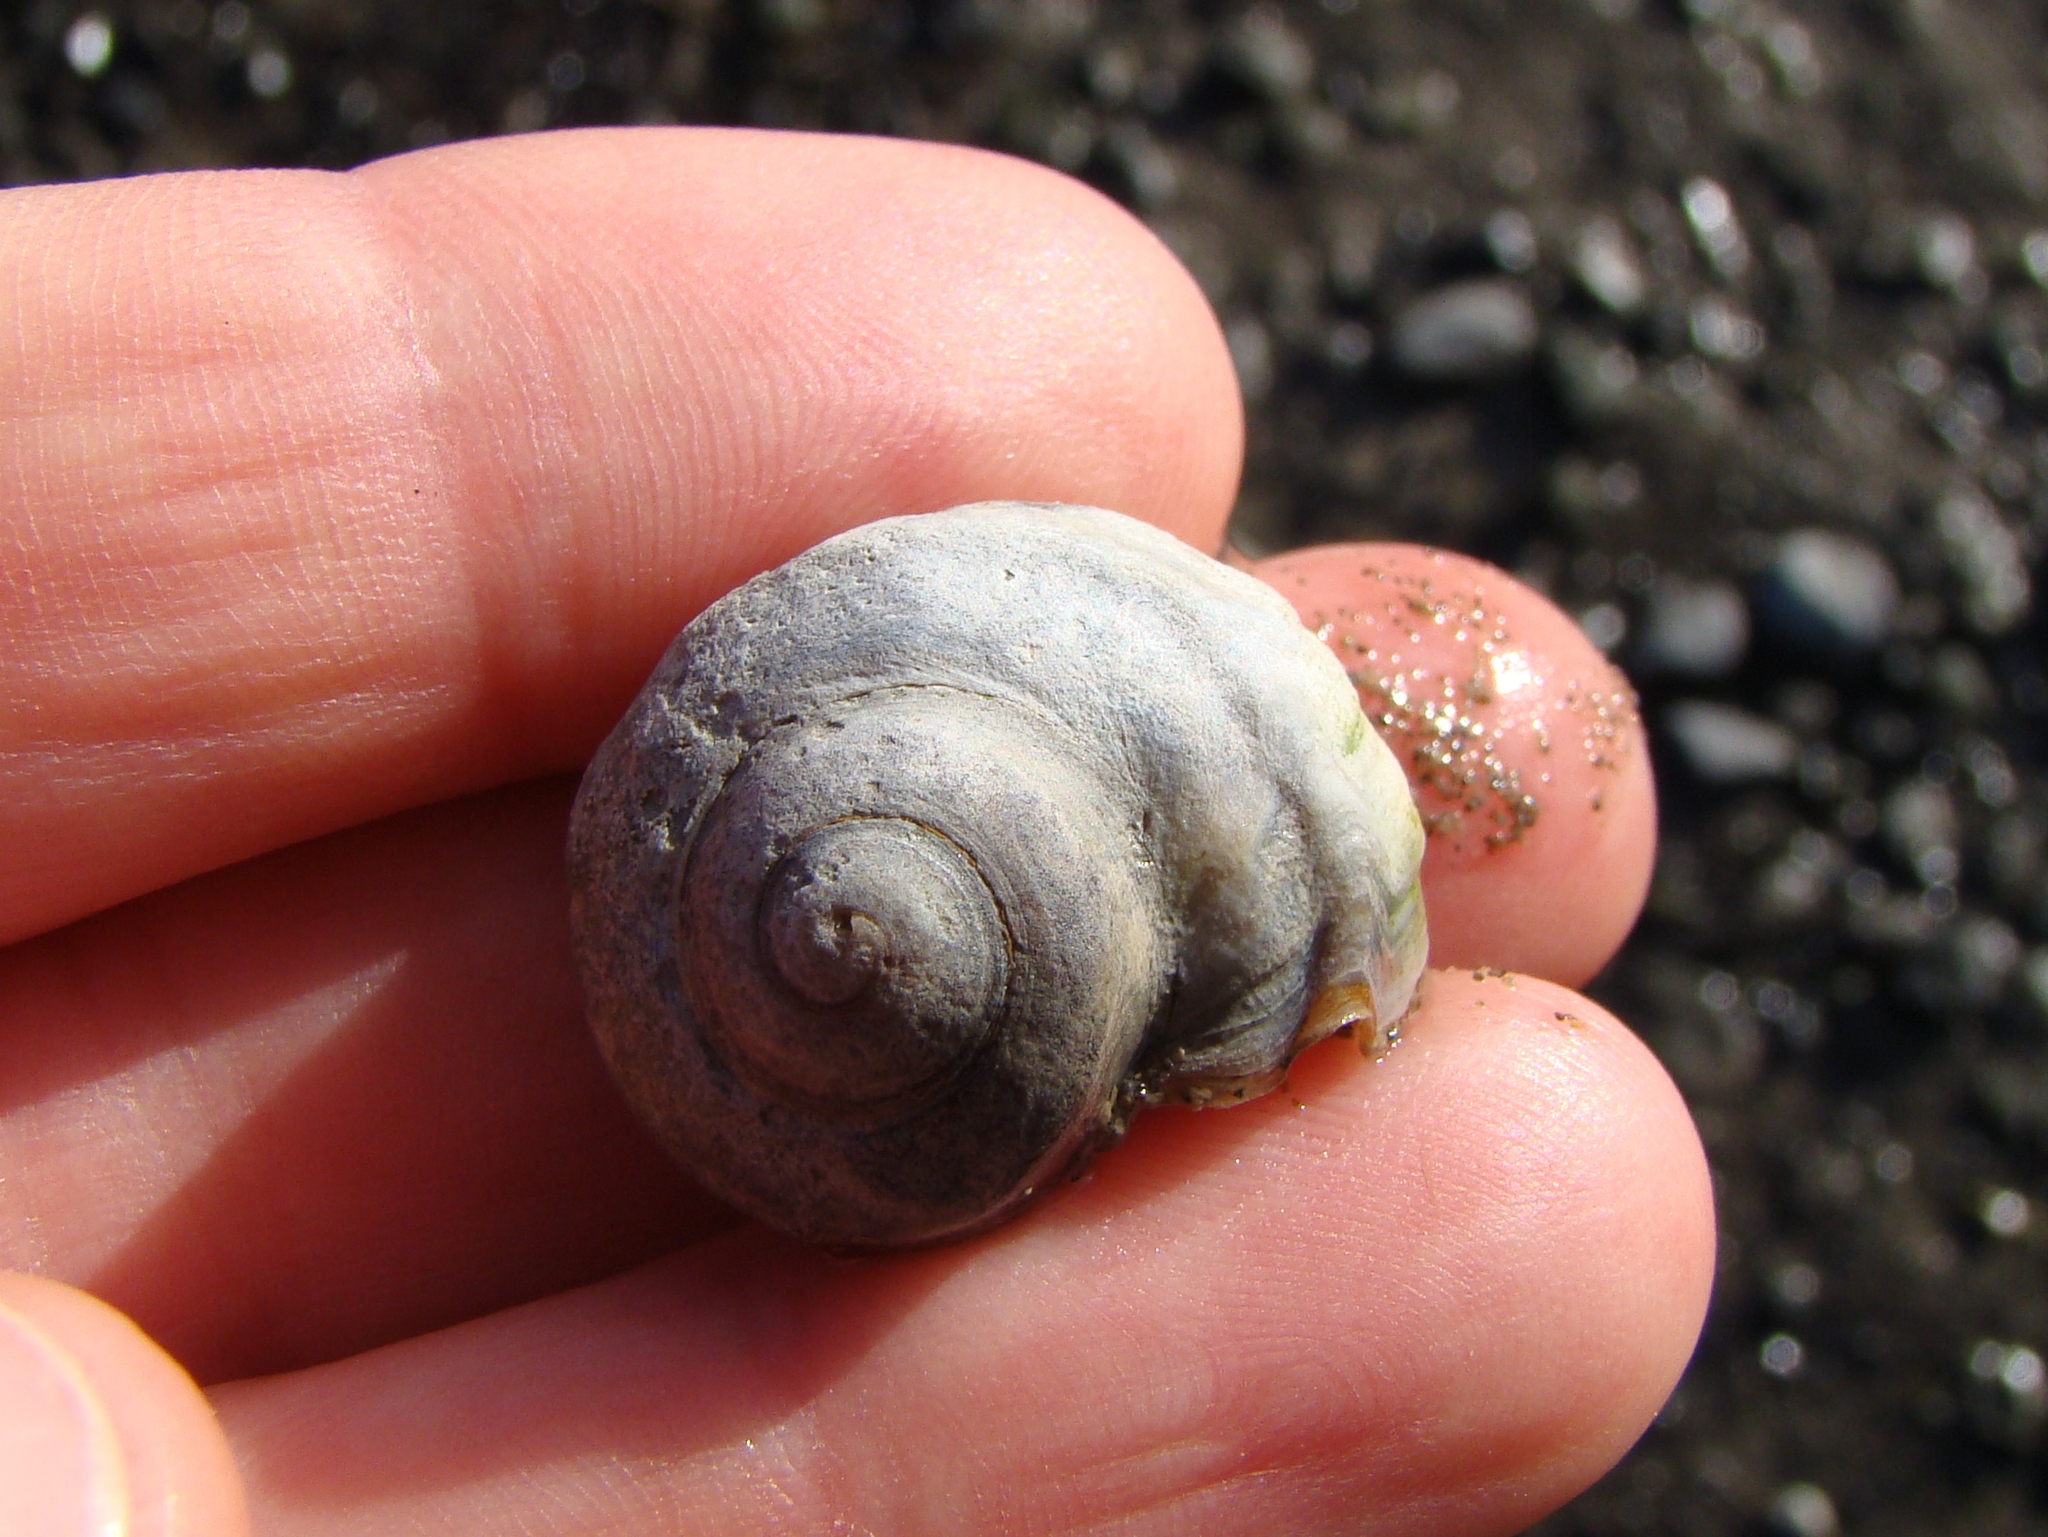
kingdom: Animalia
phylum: Mollusca
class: Gastropoda
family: Amphibolidae
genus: Amphibola
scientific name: Amphibola crenata
